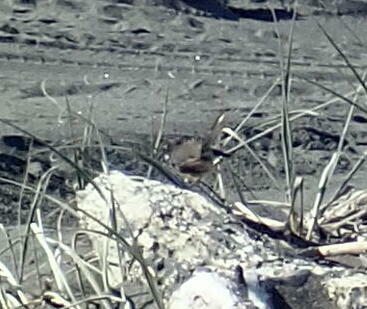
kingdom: Animalia
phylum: Chordata
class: Aves
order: Passeriformes
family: Rhipiduridae
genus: Rhipidura
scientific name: Rhipidura fuliginosa
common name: New zealand fantail
